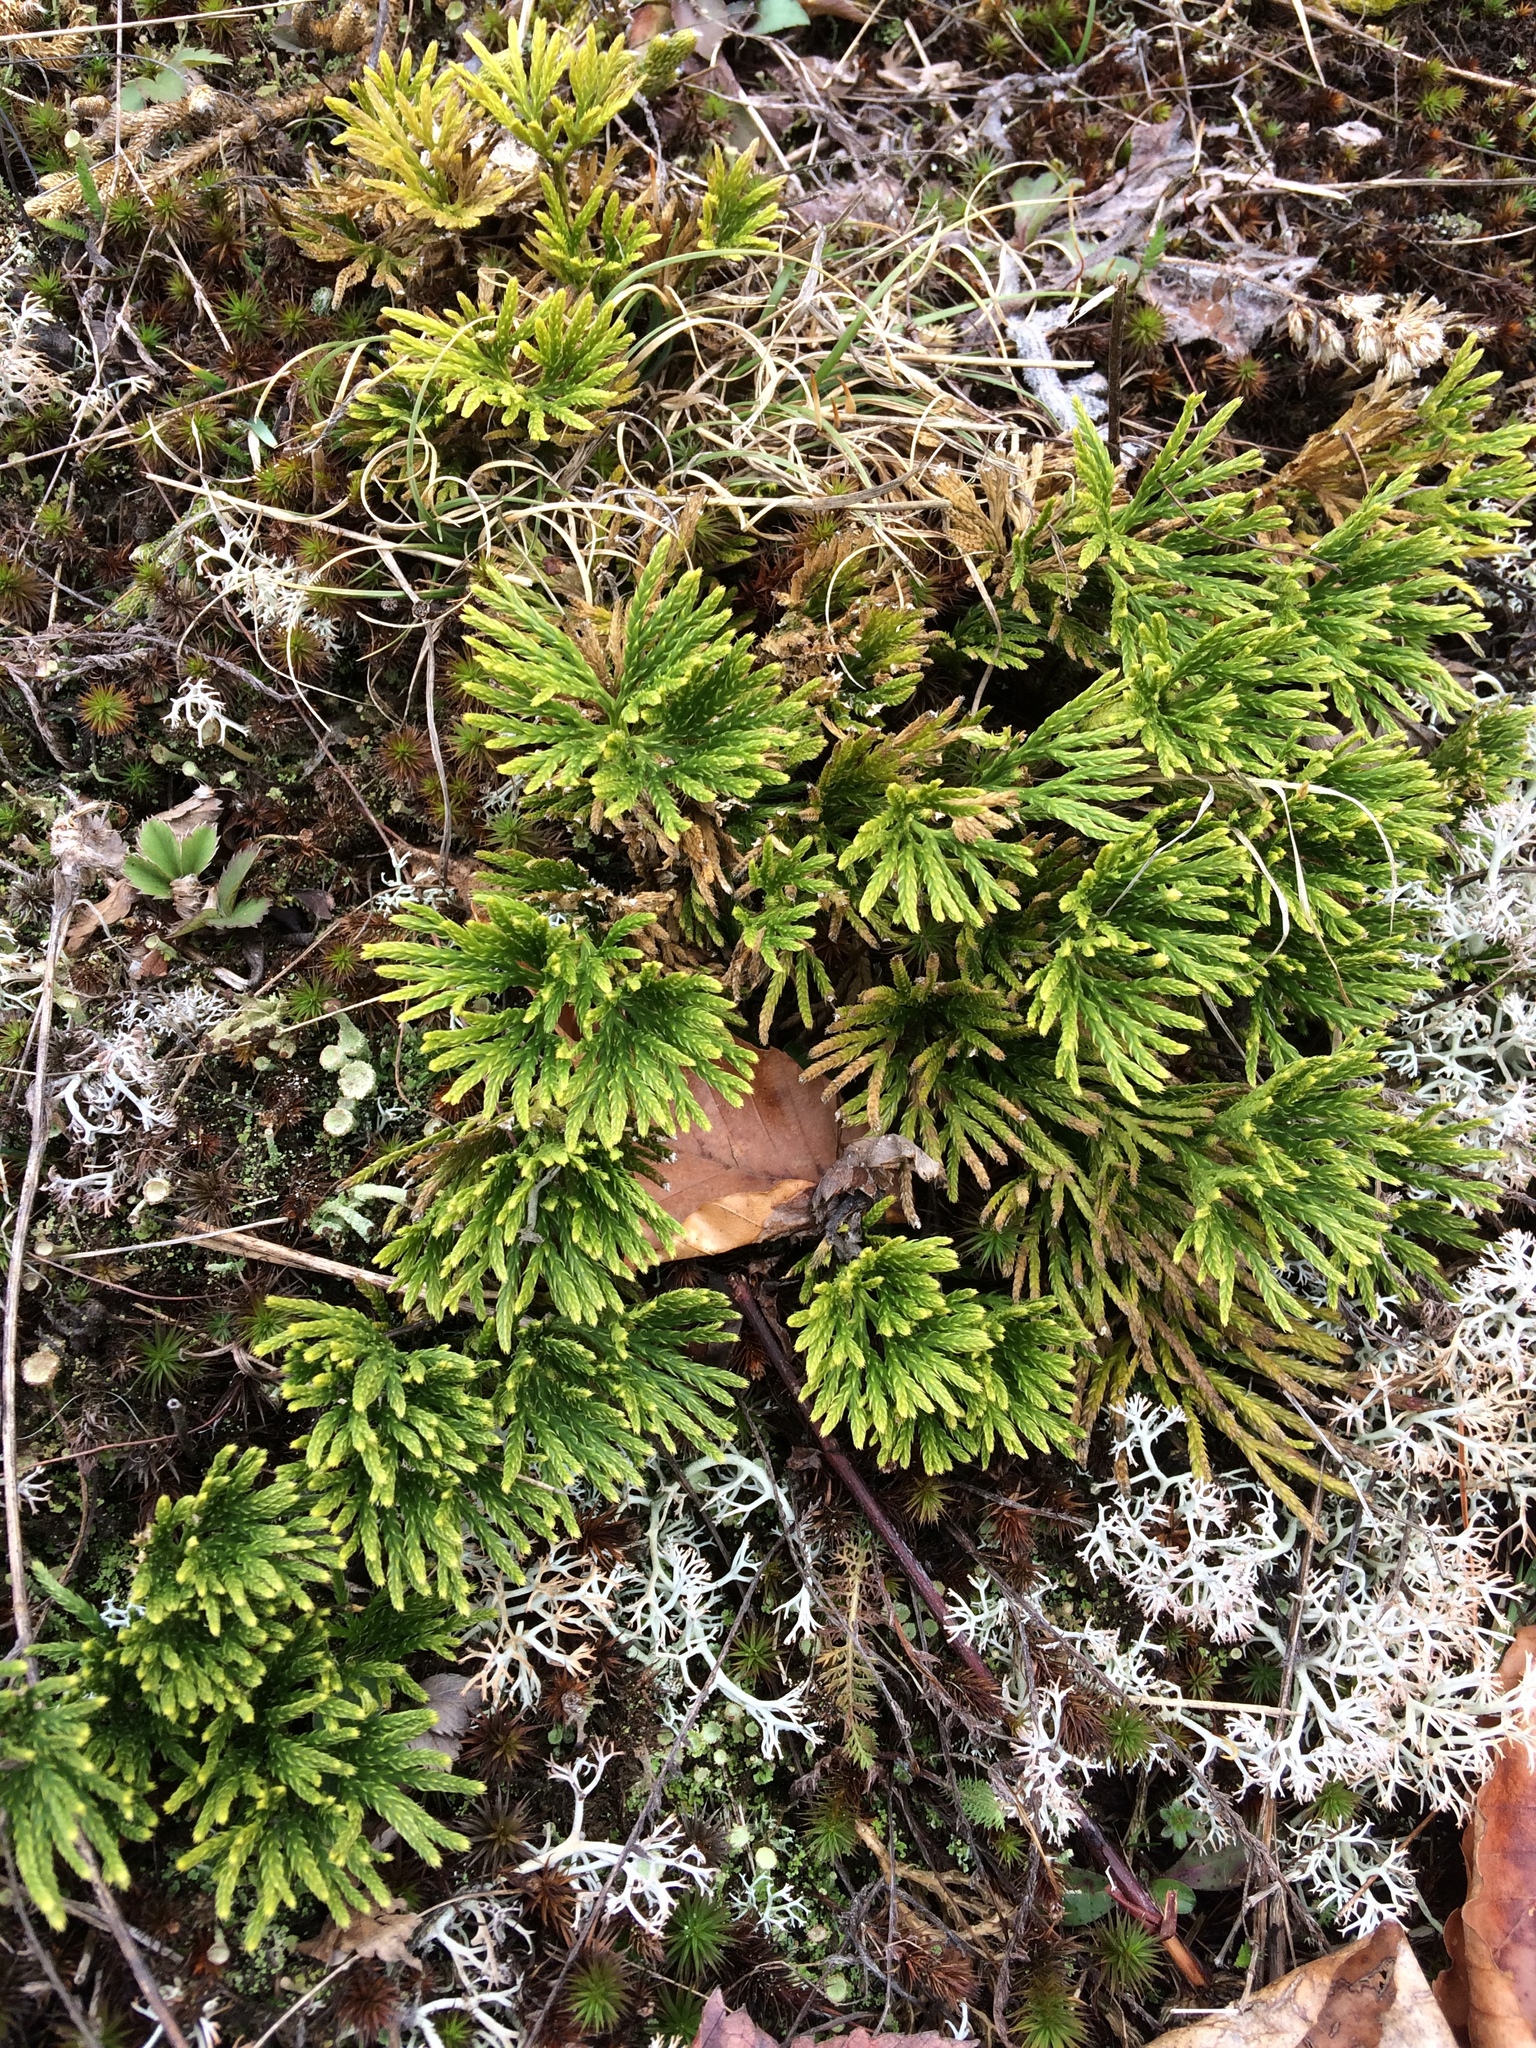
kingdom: Plantae
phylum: Tracheophyta
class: Lycopodiopsida
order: Lycopodiales
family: Lycopodiaceae
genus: Diphasiastrum
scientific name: Diphasiastrum tristachyum
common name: Blue ground-cedar
